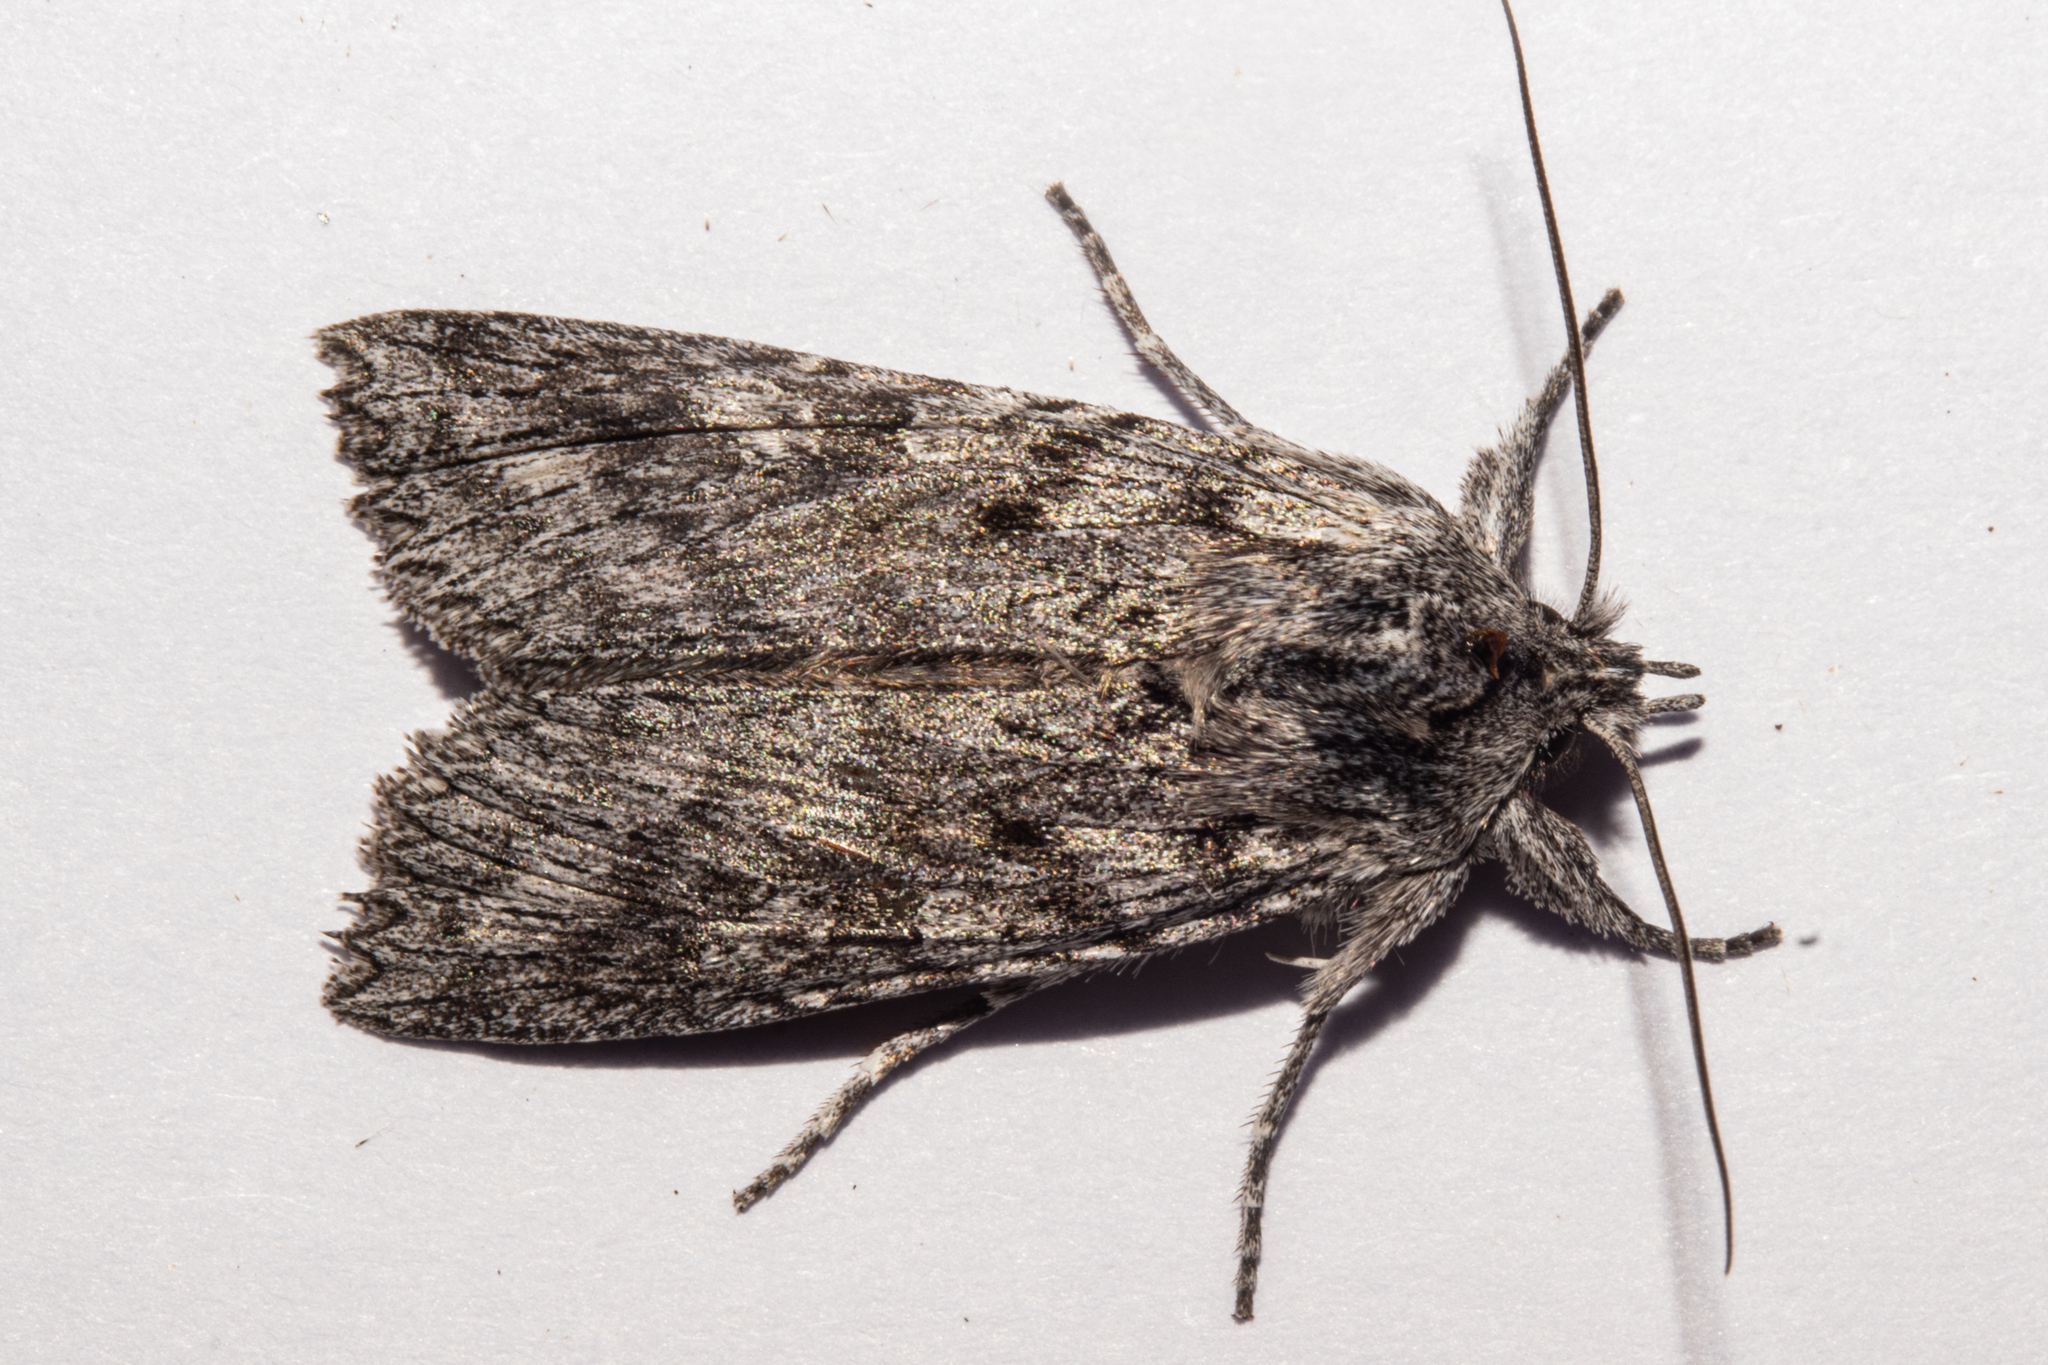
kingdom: Animalia
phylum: Arthropoda
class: Insecta
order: Lepidoptera
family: Noctuidae
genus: Physetica
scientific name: Physetica phricias
